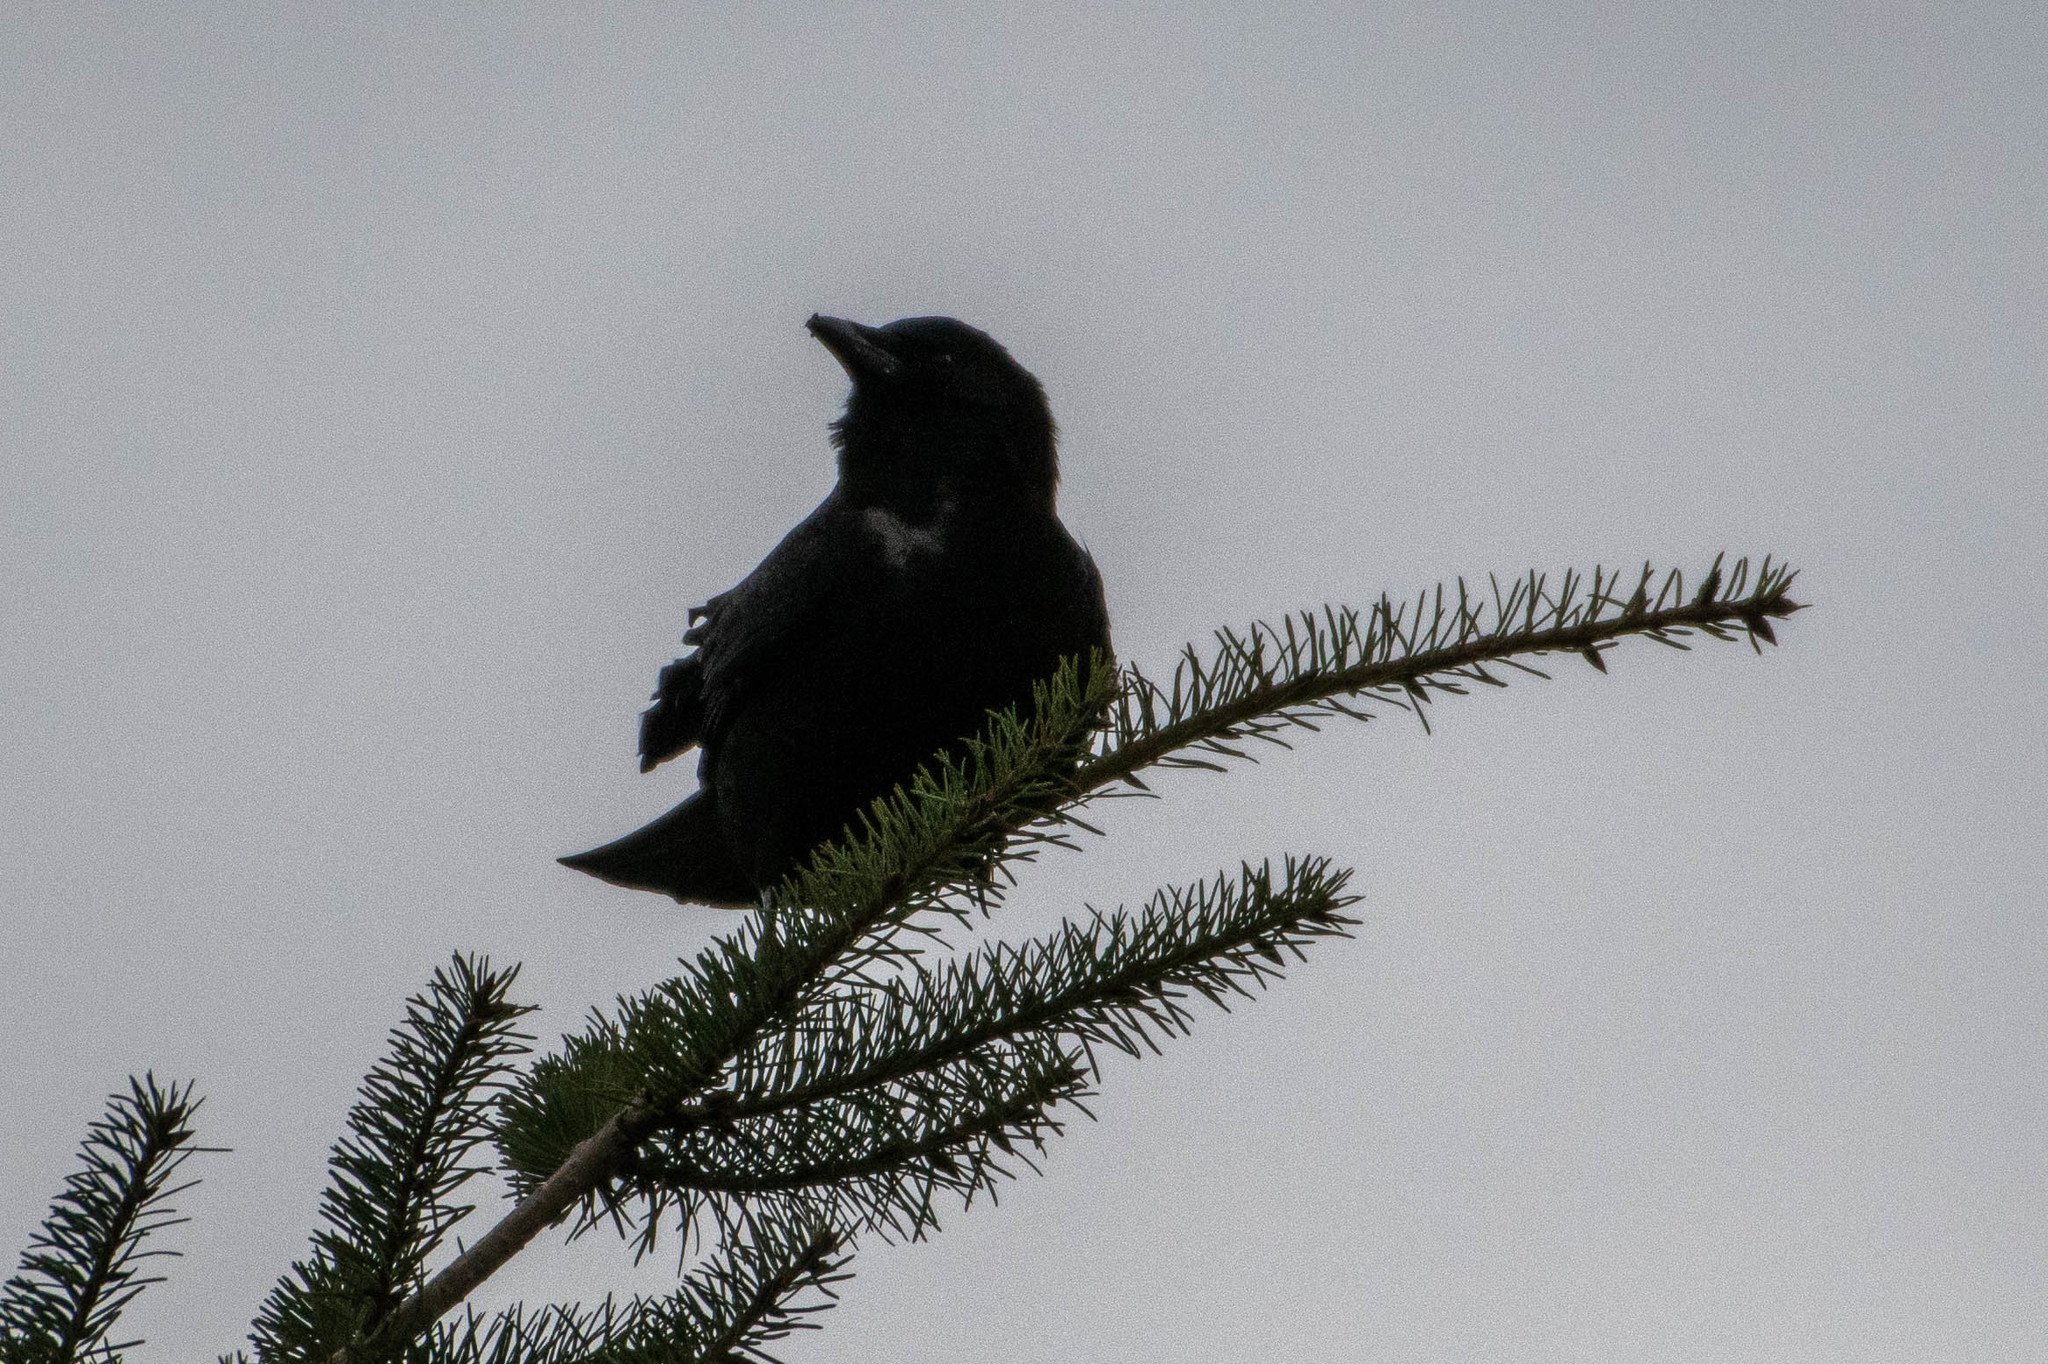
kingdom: Animalia
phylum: Chordata
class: Aves
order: Passeriformes
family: Corvidae
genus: Corvus
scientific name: Corvus brachyrhynchos
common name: American crow
